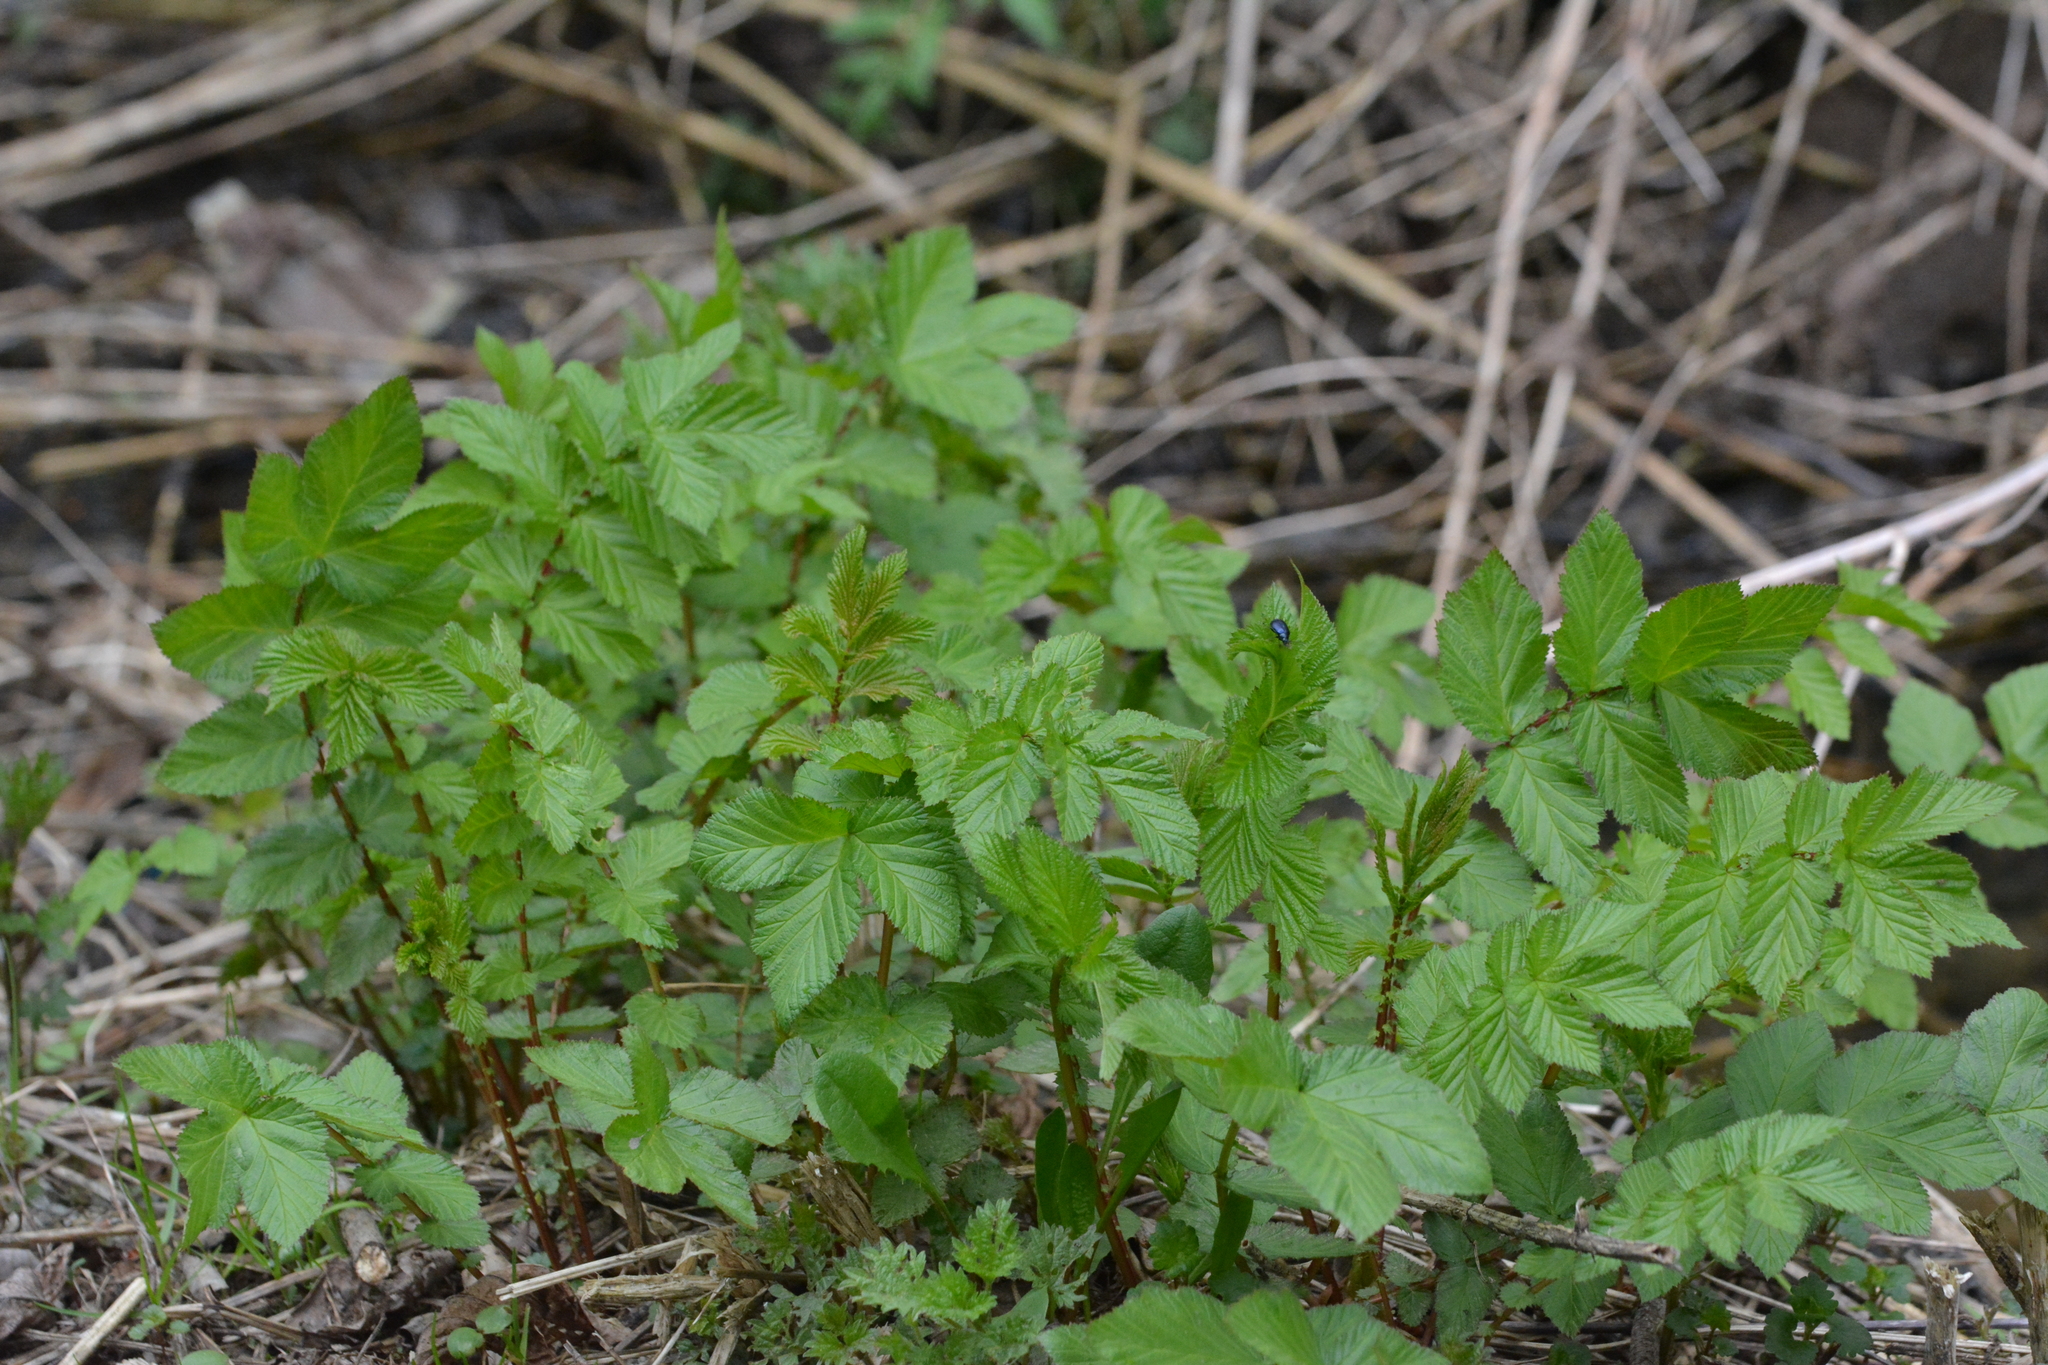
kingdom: Plantae
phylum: Tracheophyta
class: Magnoliopsida
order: Rosales
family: Rosaceae
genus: Filipendula
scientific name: Filipendula ulmaria
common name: Meadowsweet
